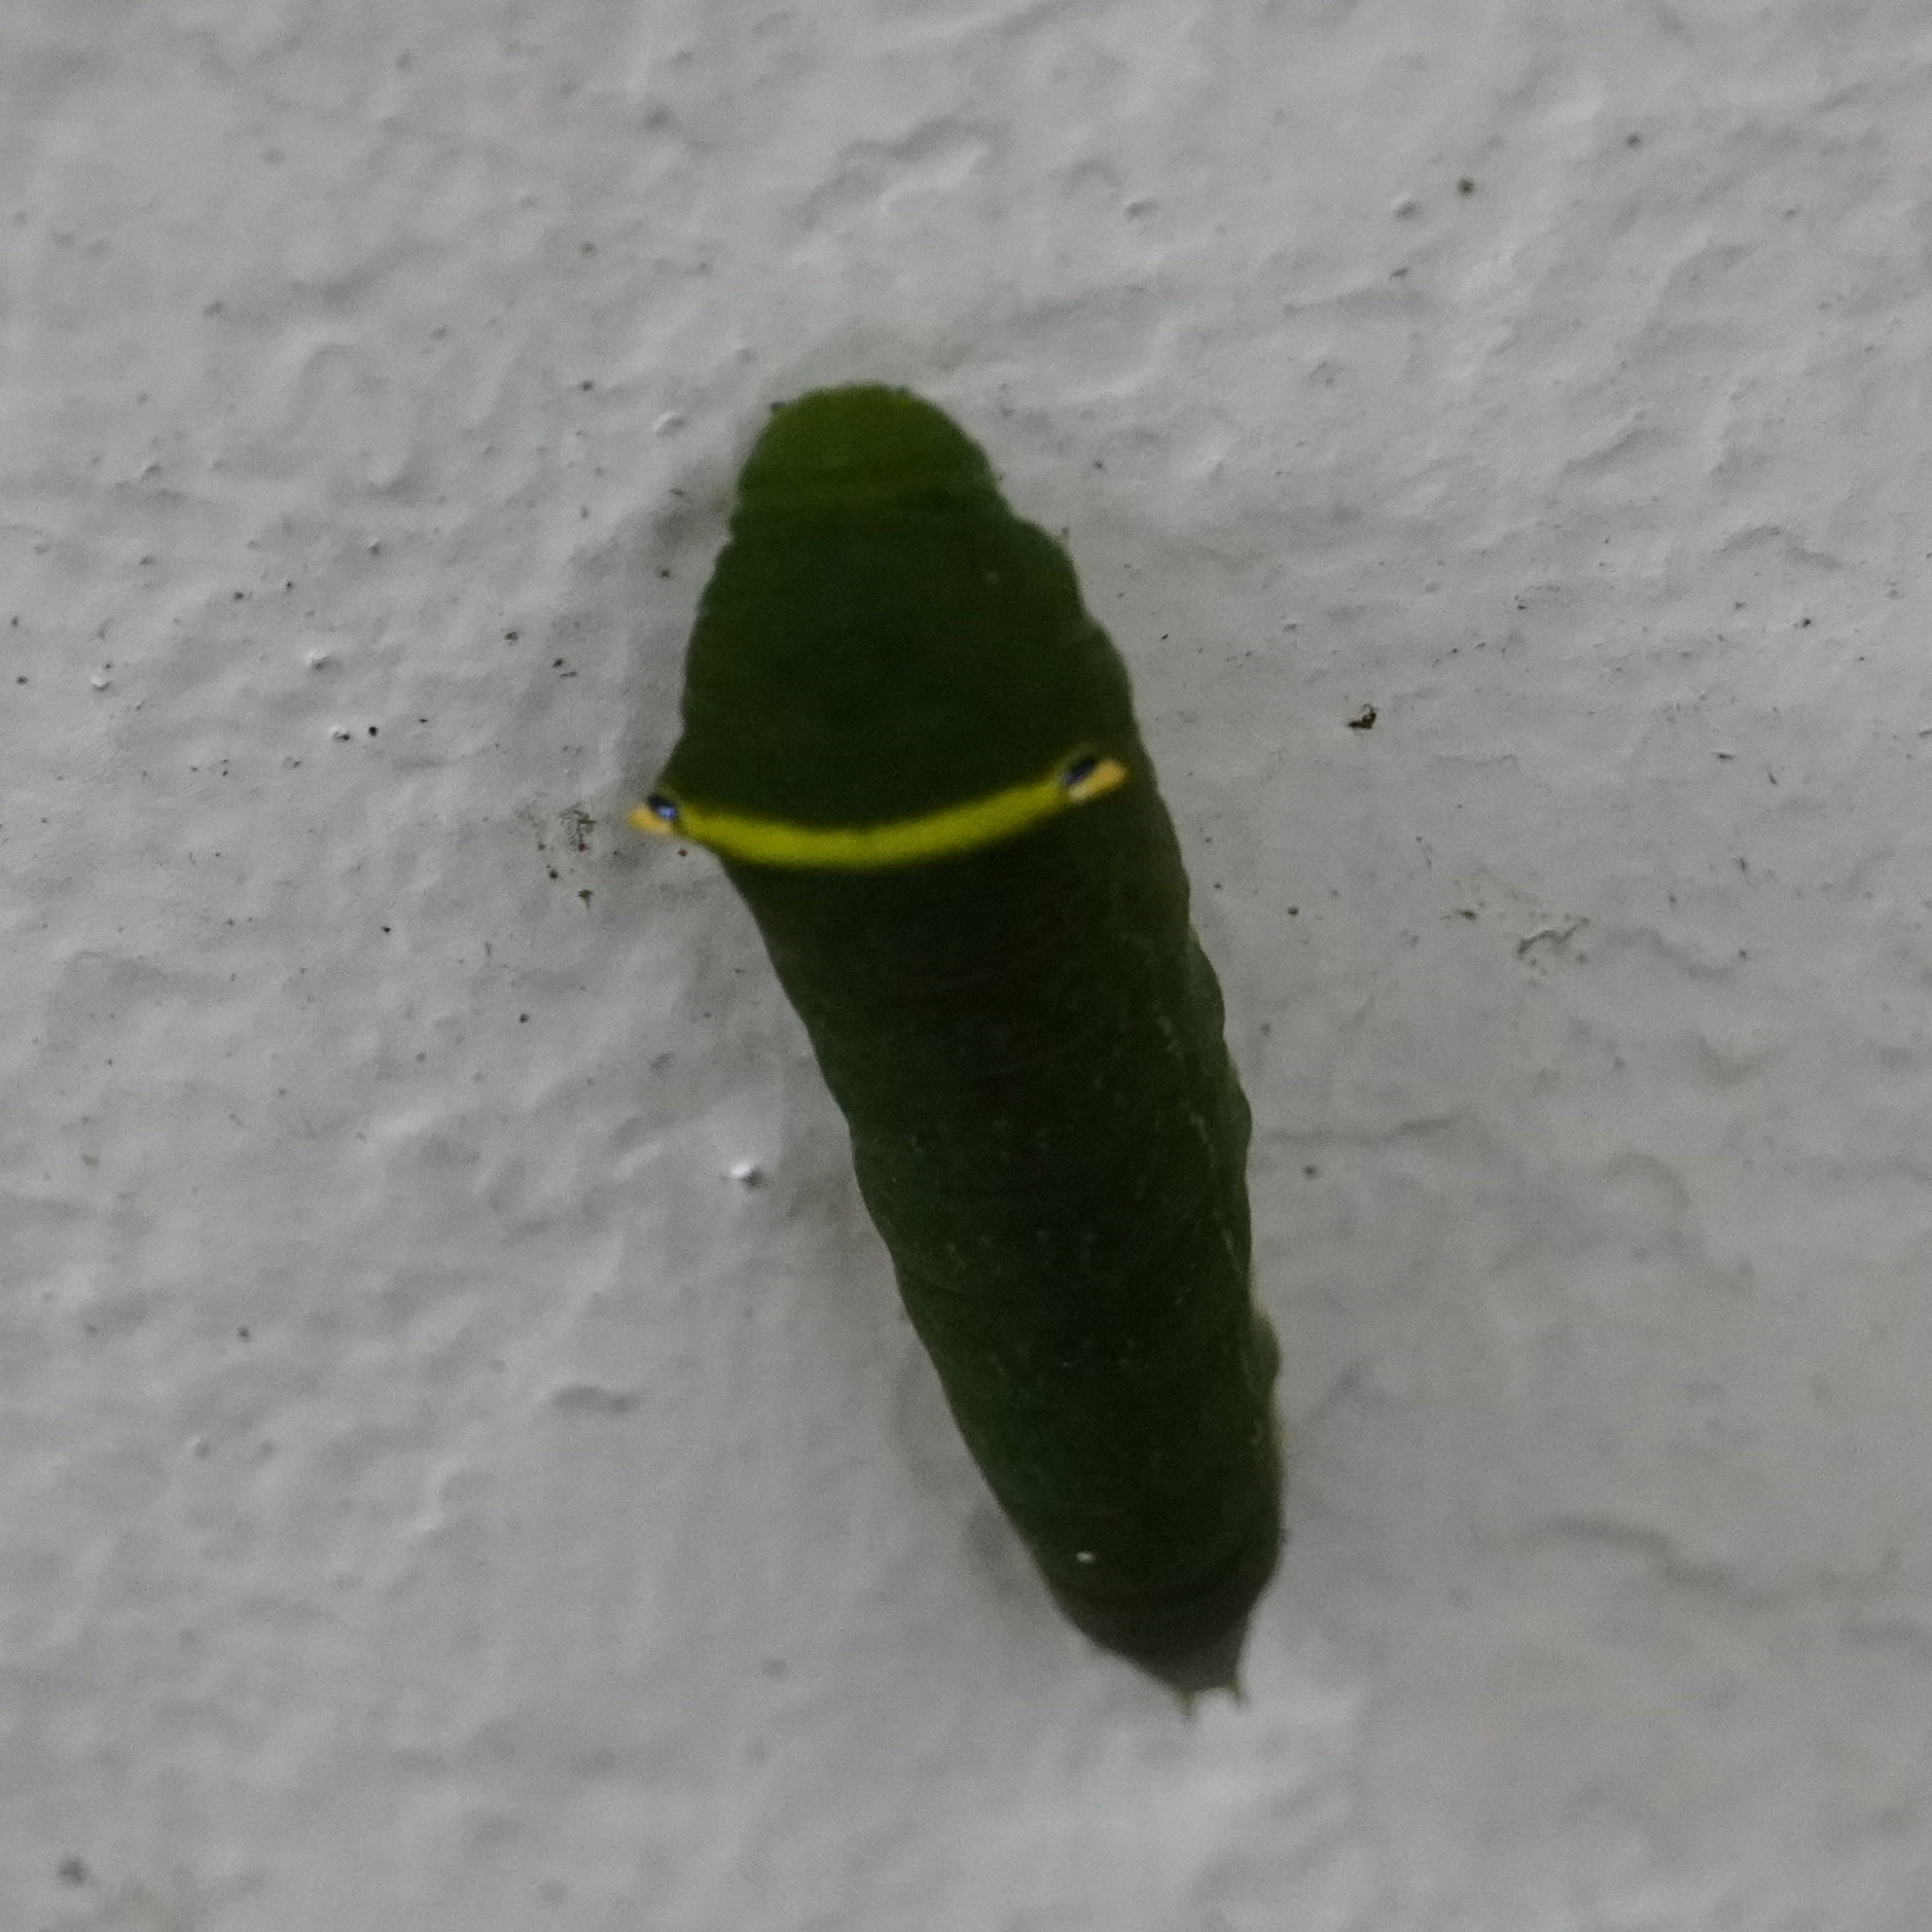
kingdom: Fungi
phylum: Ascomycota
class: Sordariomycetes
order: Microascales
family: Microascaceae
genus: Graphium
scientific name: Graphium sarpedon
